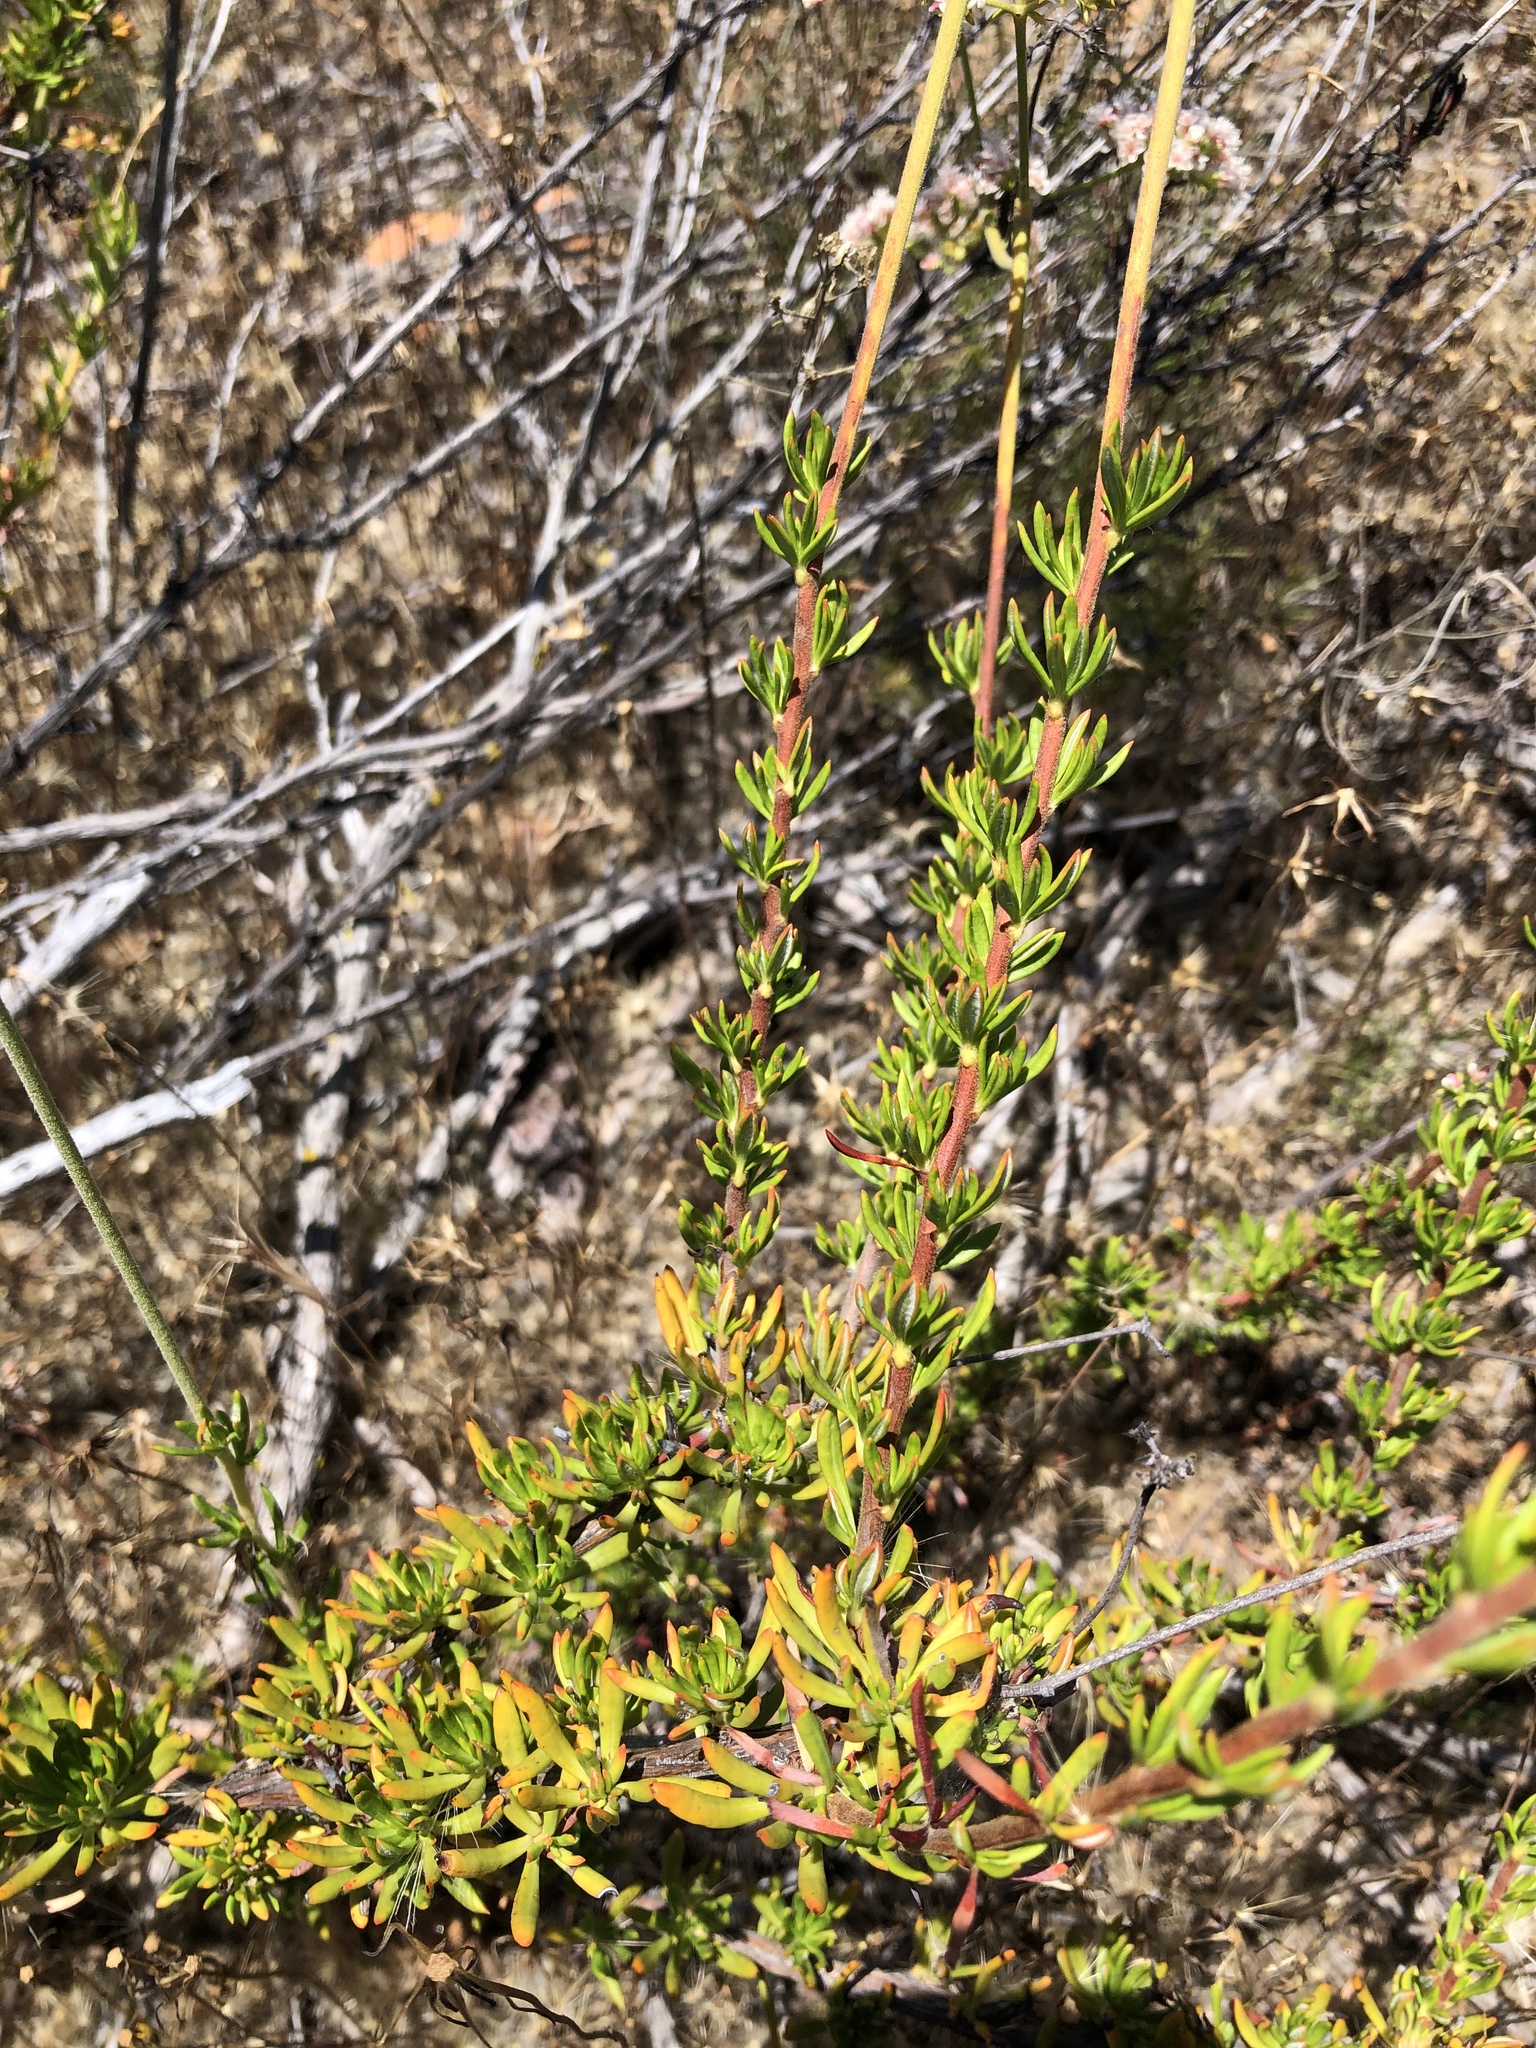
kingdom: Plantae
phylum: Tracheophyta
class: Magnoliopsida
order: Caryophyllales
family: Polygonaceae
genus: Eriogonum
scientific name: Eriogonum fasciculatum
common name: California wild buckwheat
